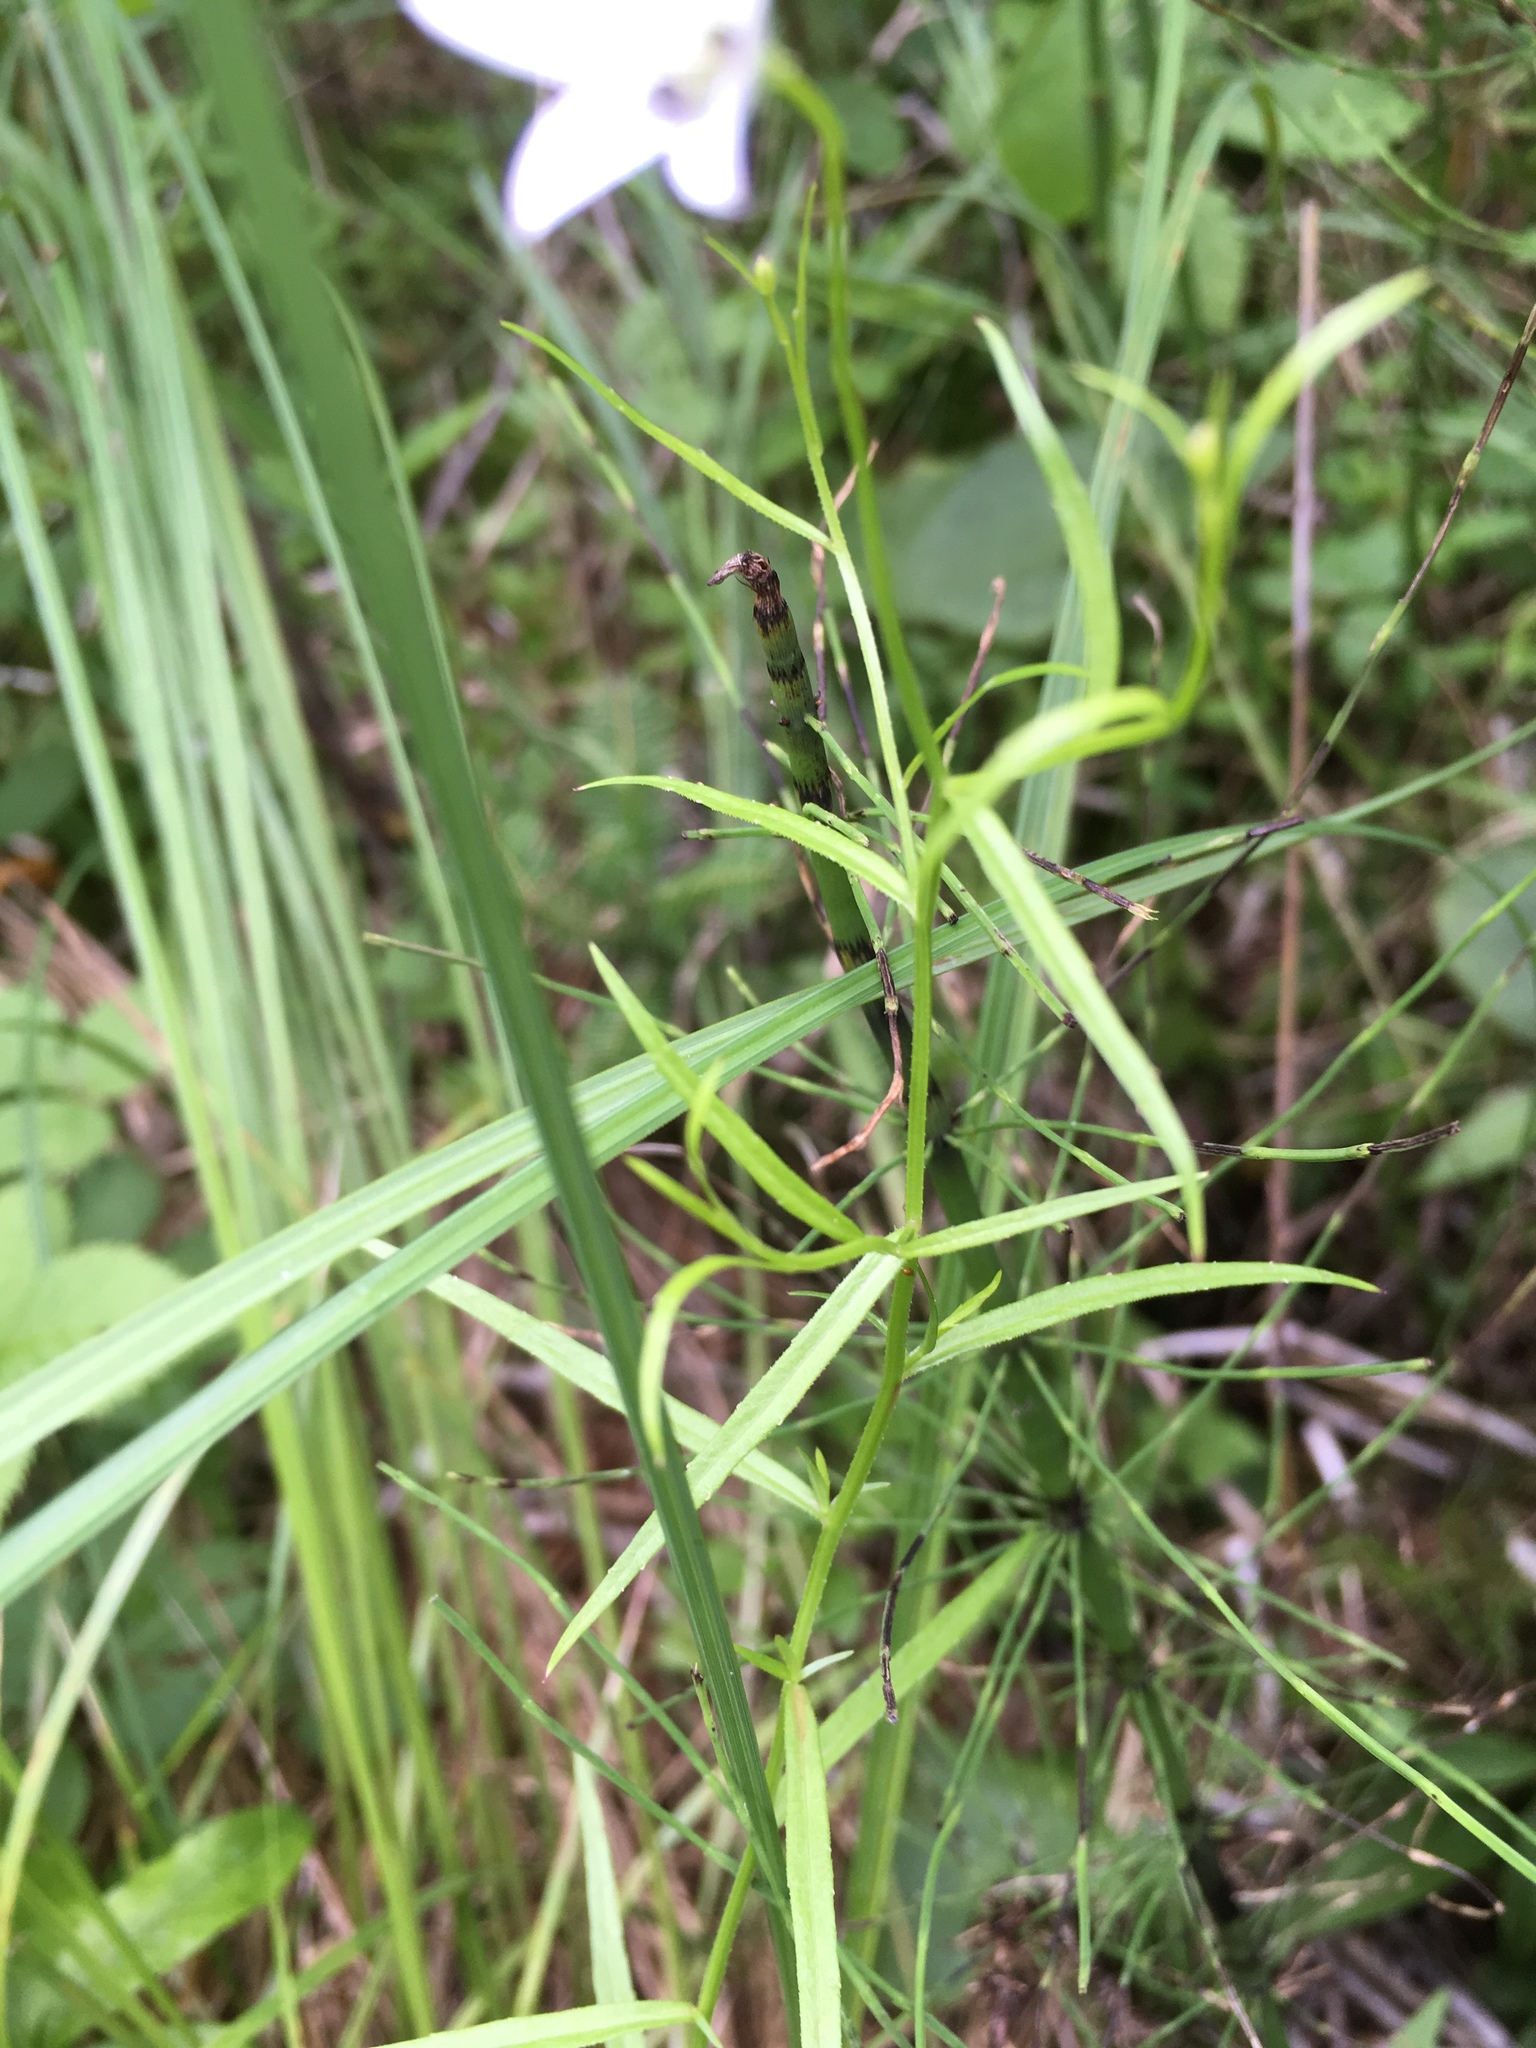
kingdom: Plantae
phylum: Tracheophyta
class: Magnoliopsida
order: Asterales
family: Campanulaceae
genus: Palustricodon
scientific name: Palustricodon aparinoides
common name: Bedstraw bellflower
